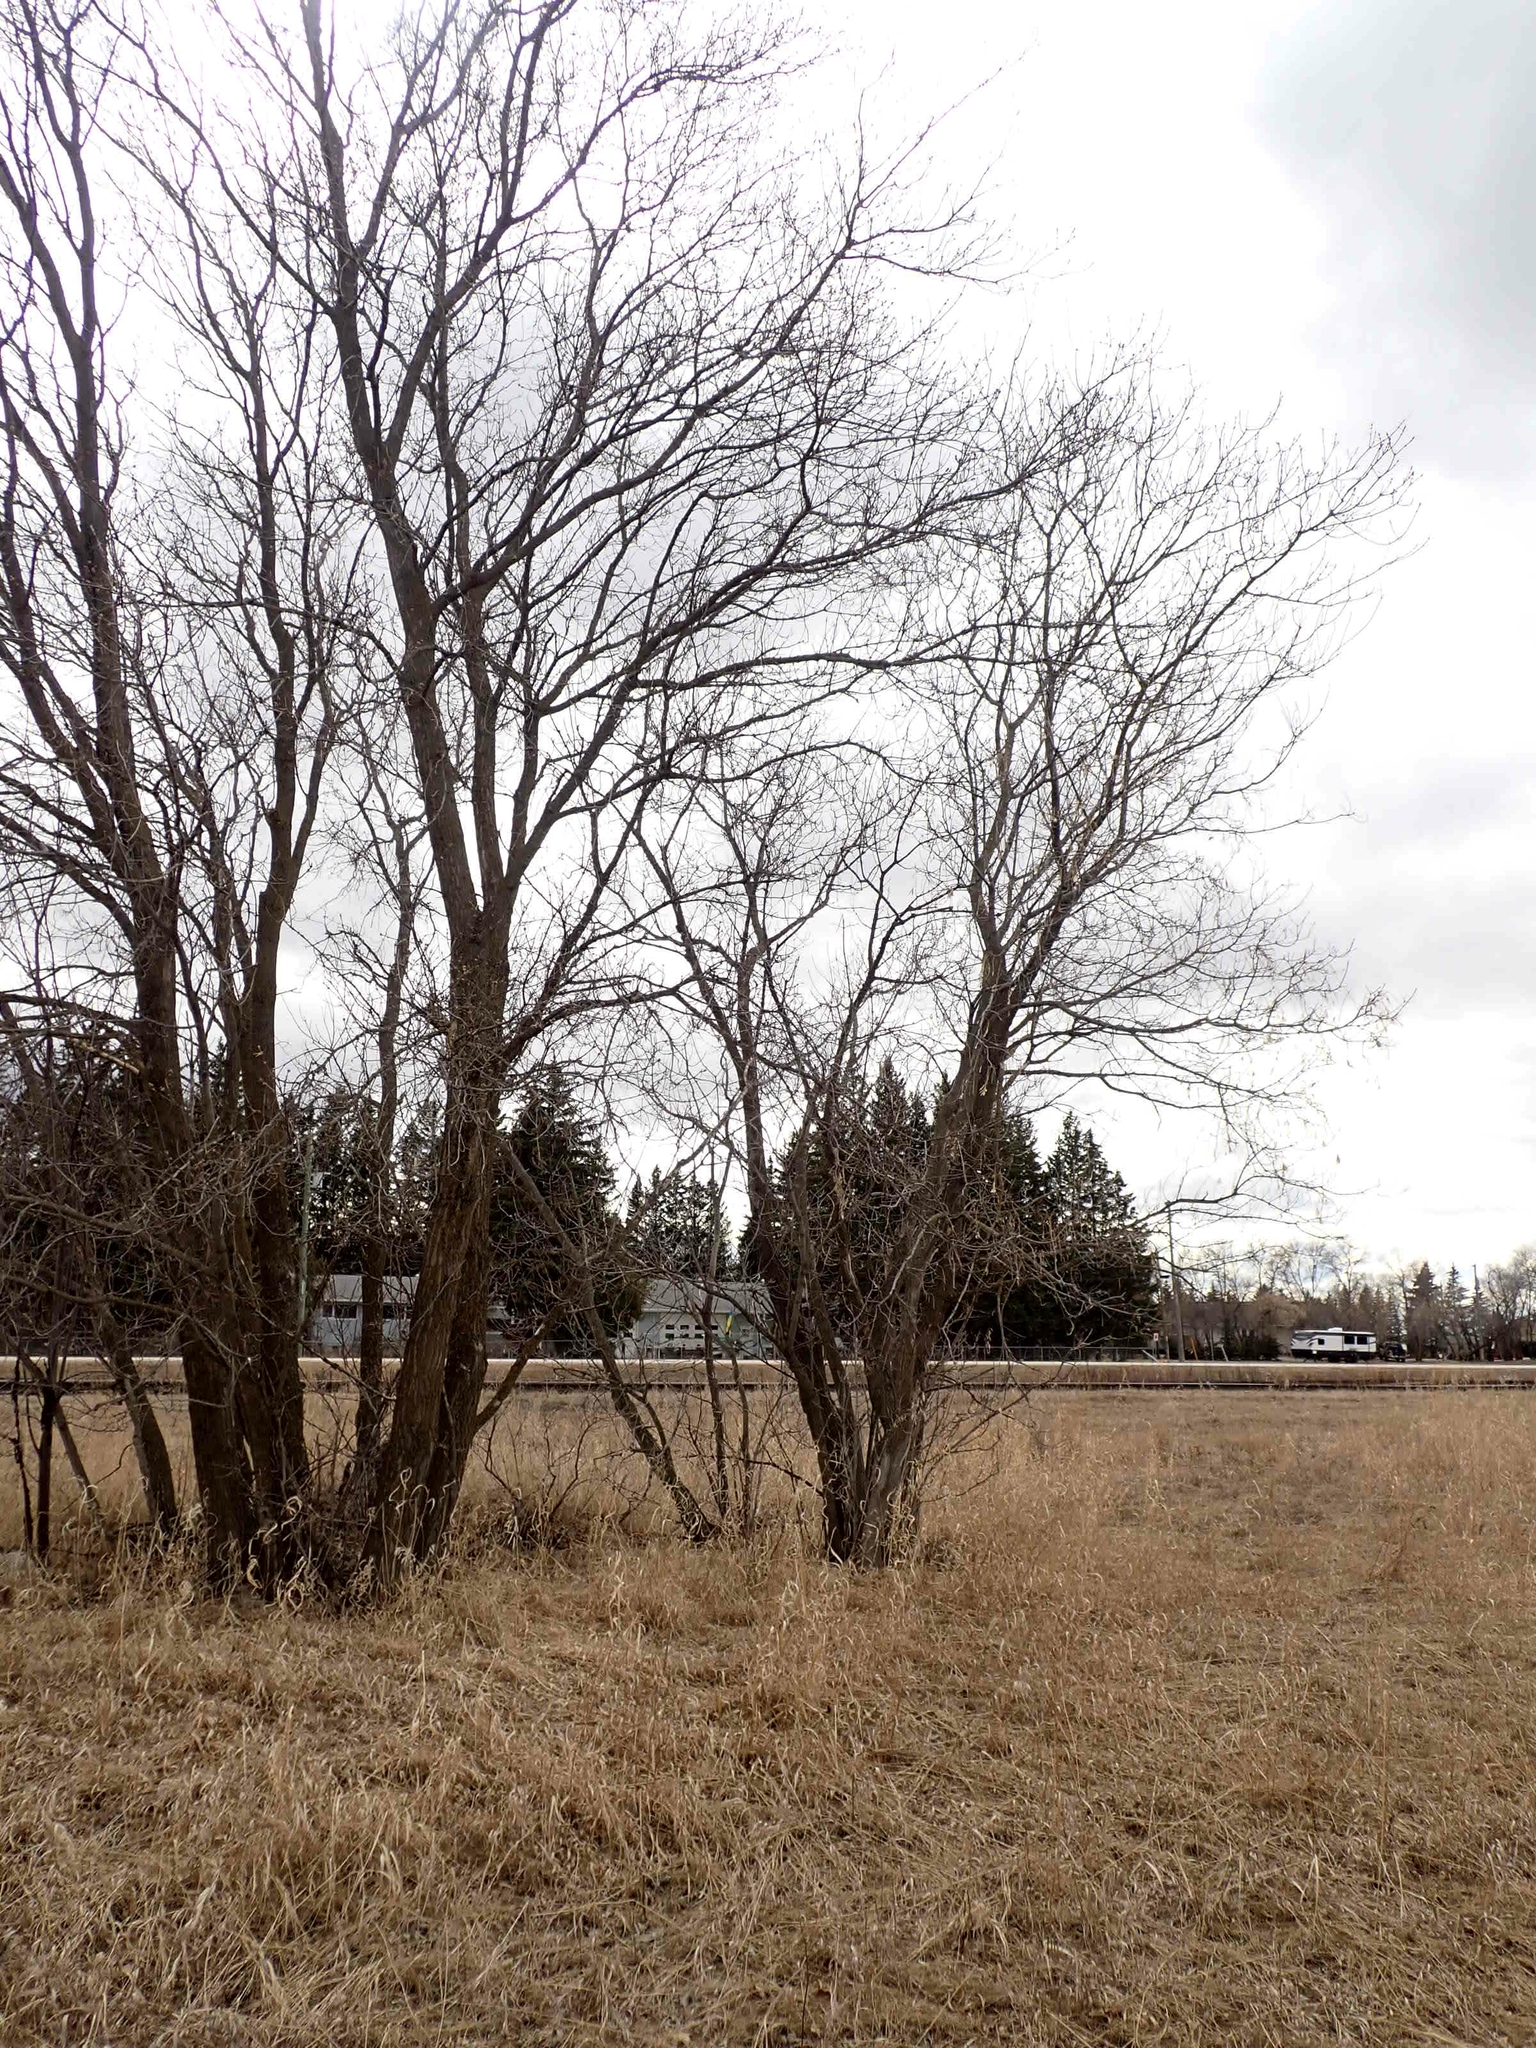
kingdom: Plantae
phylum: Tracheophyta
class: Magnoliopsida
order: Sapindales
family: Sapindaceae
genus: Acer
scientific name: Acer negundo
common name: Ashleaf maple
